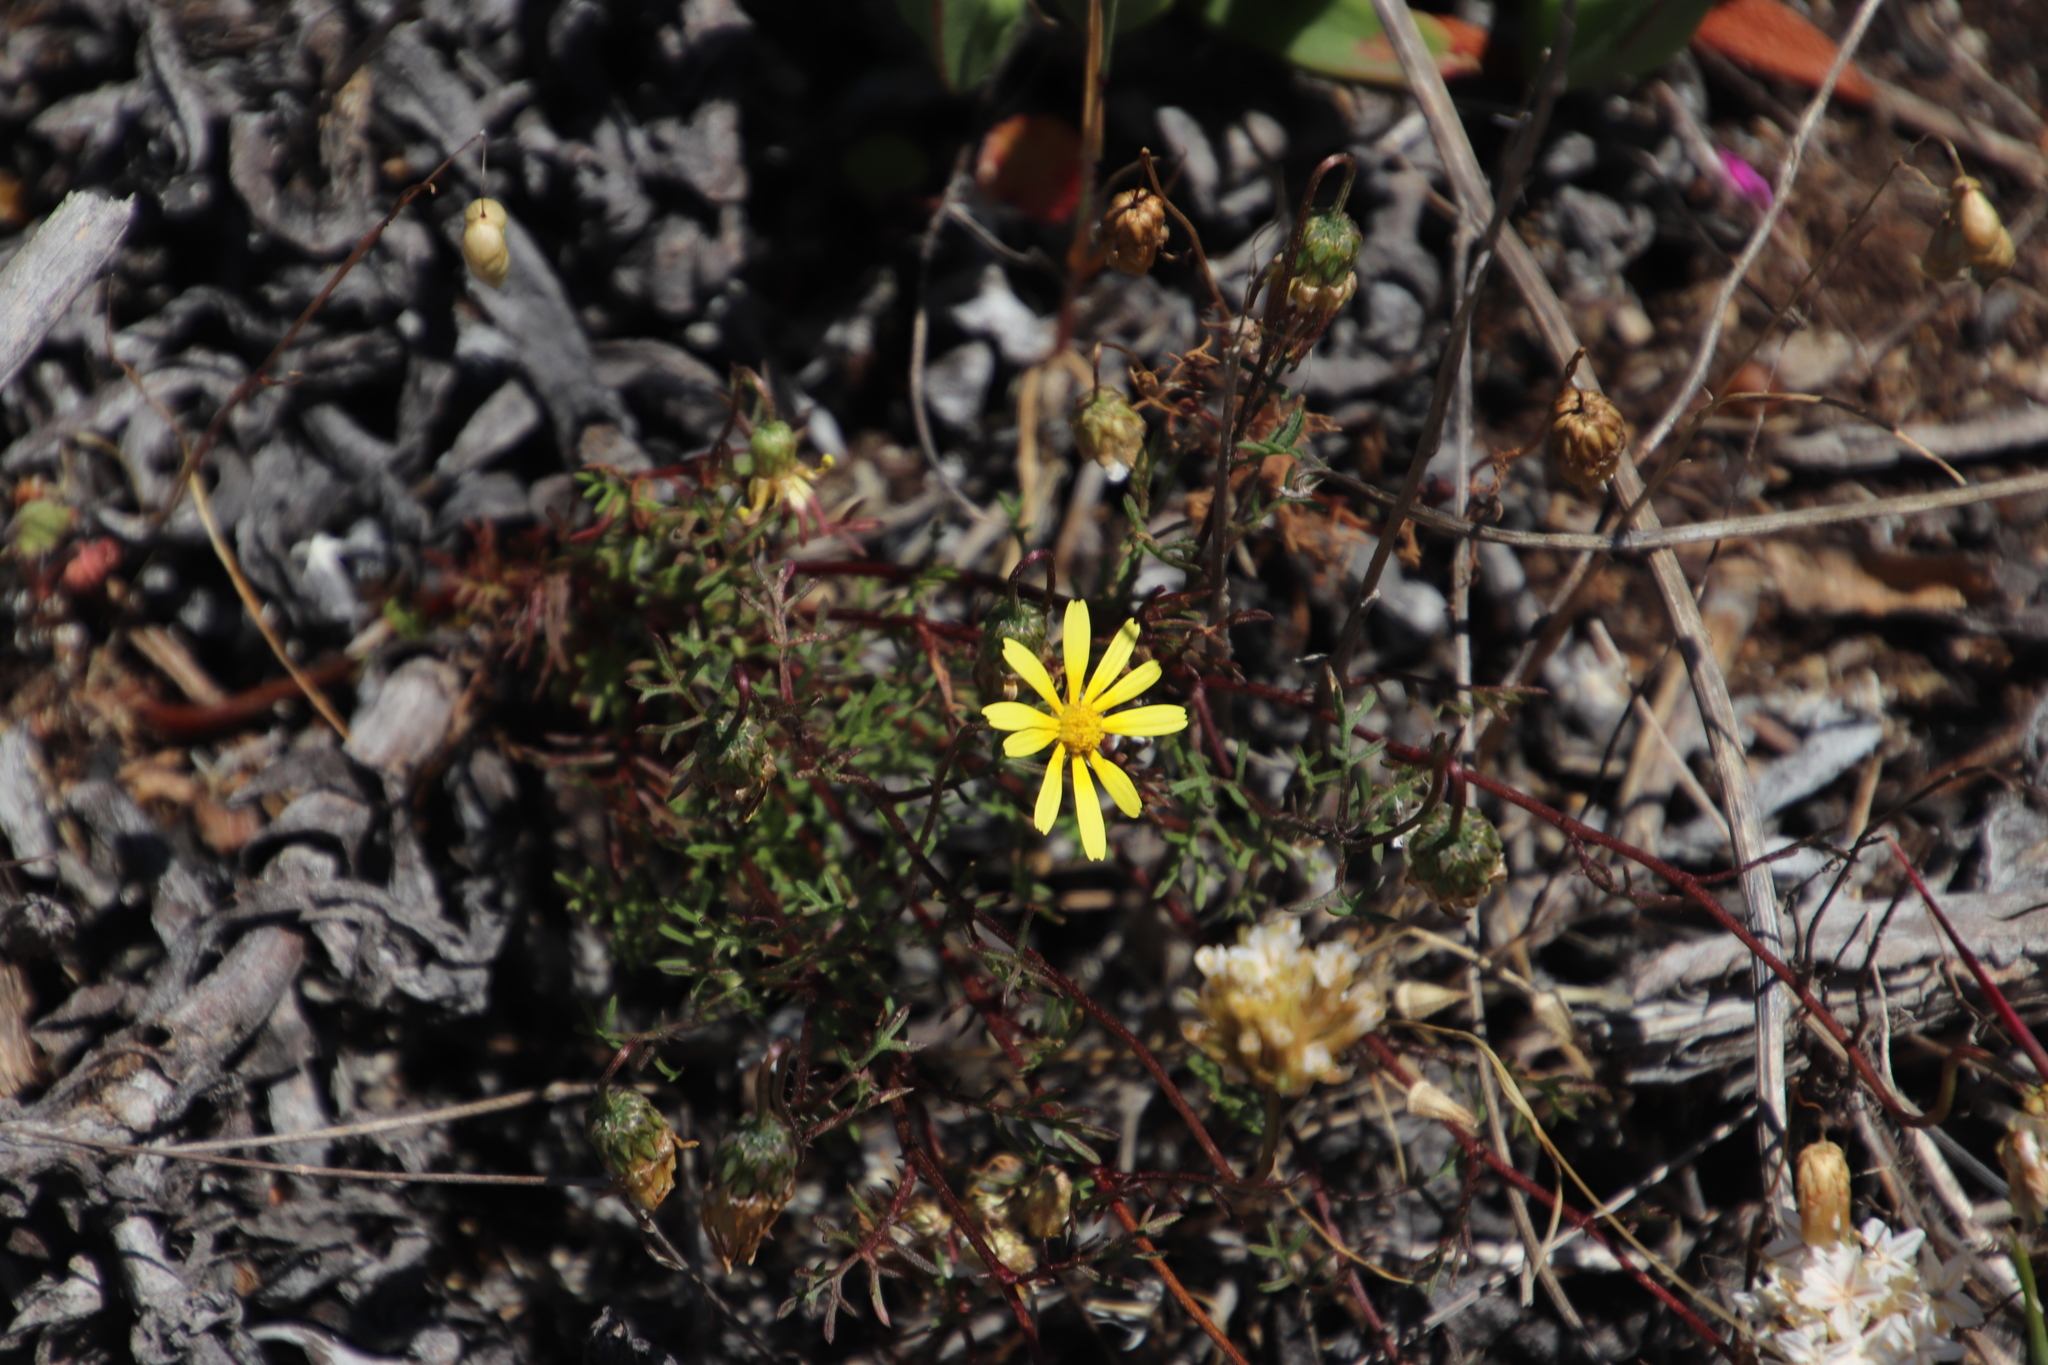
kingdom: Plantae
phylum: Tracheophyta
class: Magnoliopsida
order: Asterales
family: Asteraceae
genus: Ursinia
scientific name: Ursinia anthemoides
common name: Ursinia
